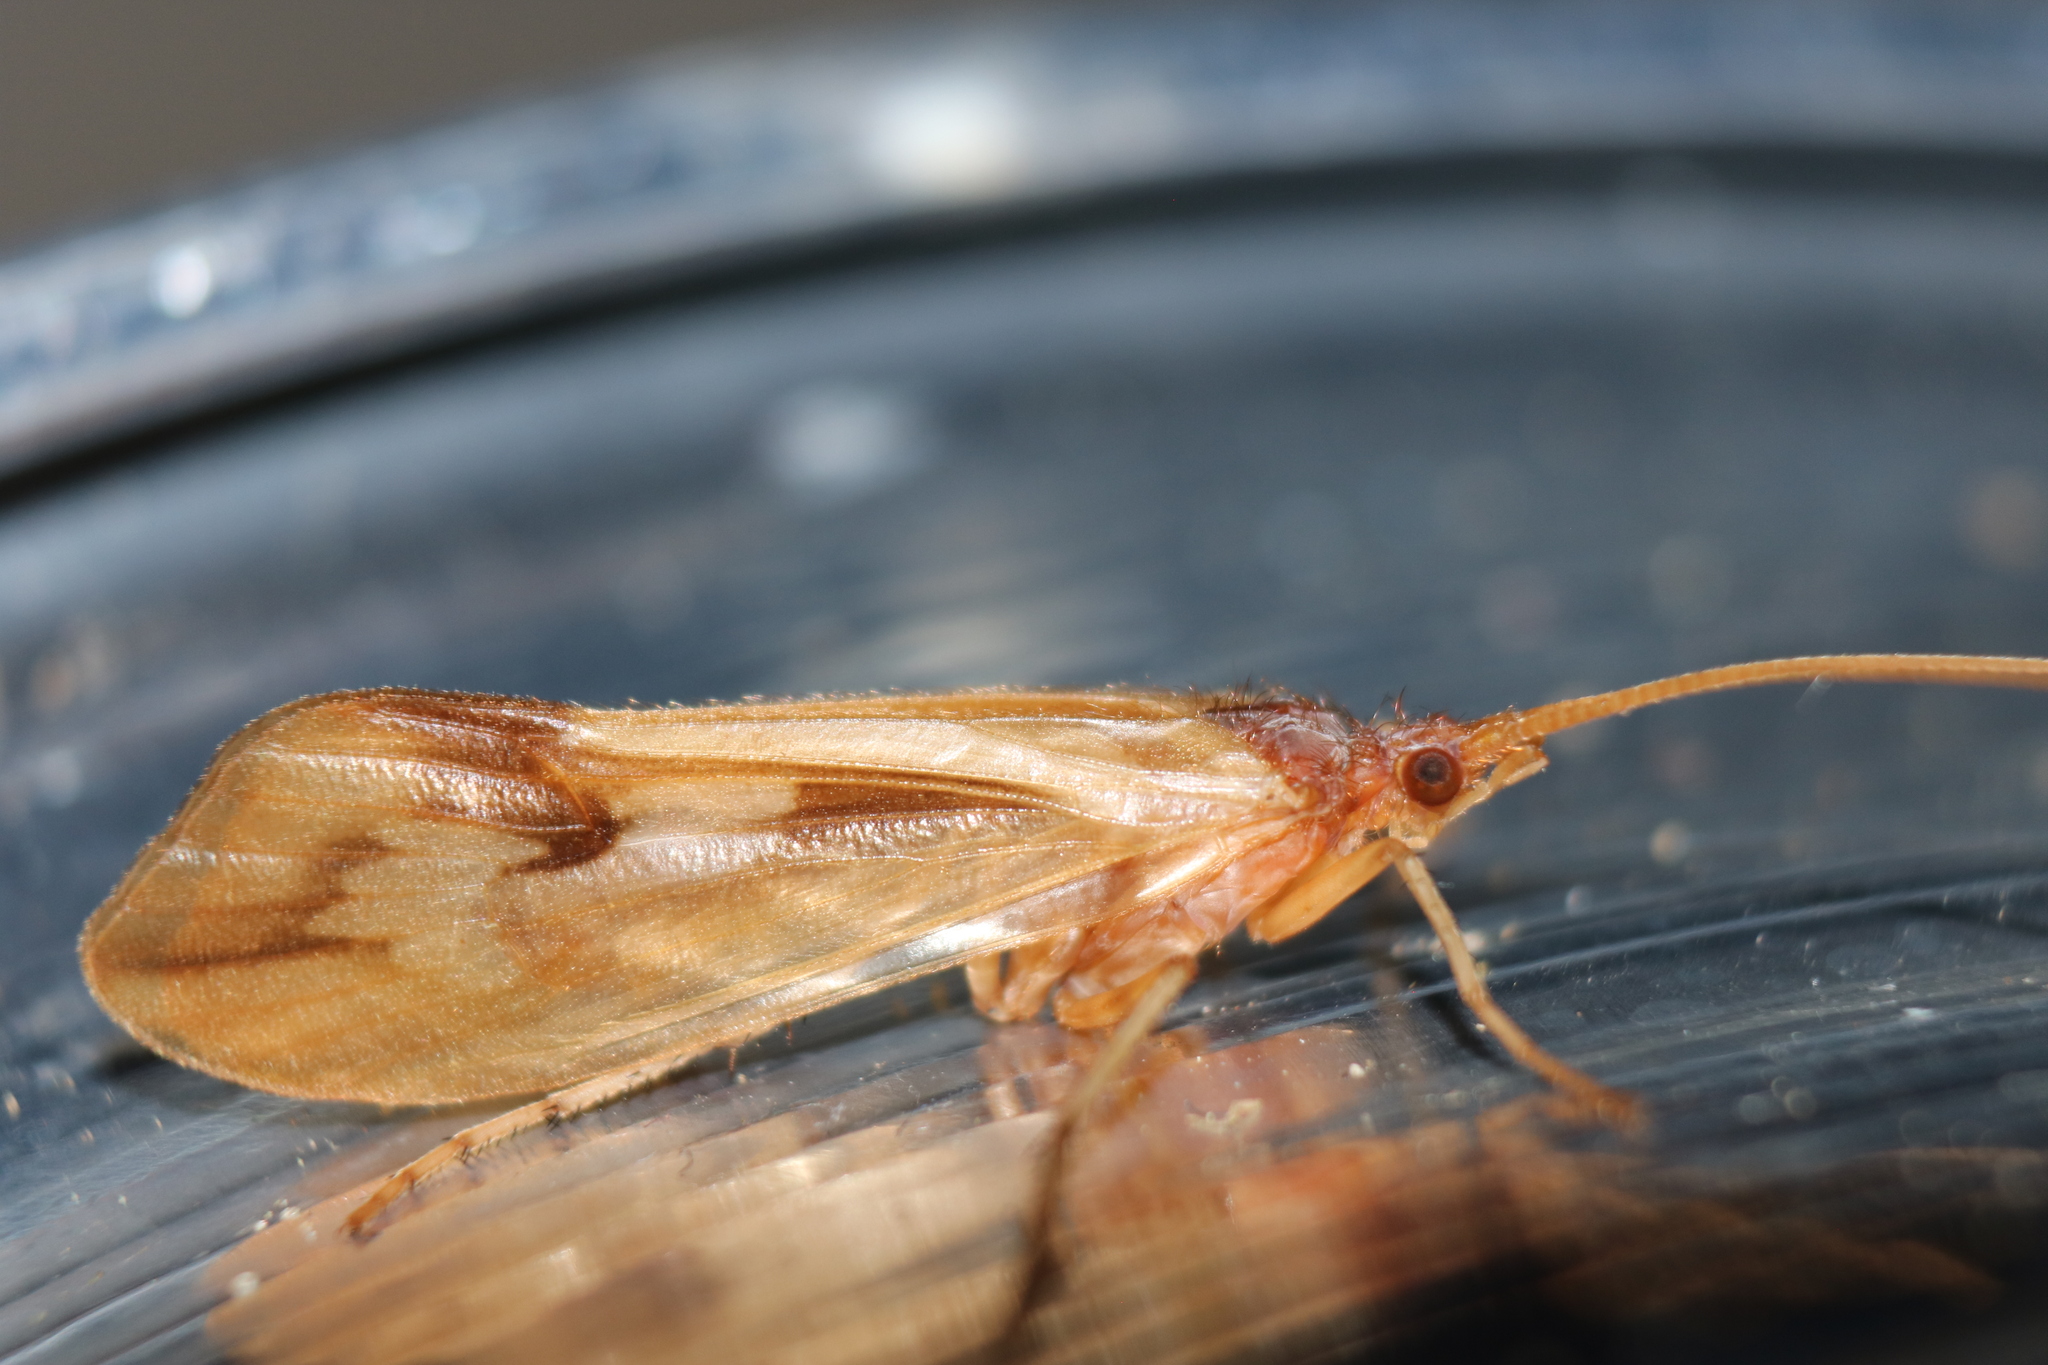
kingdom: Animalia
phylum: Arthropoda
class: Insecta
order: Trichoptera
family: Limnephilidae
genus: Platycentropus
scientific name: Platycentropus radiatus
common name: Chocolate-and-cream sedge
